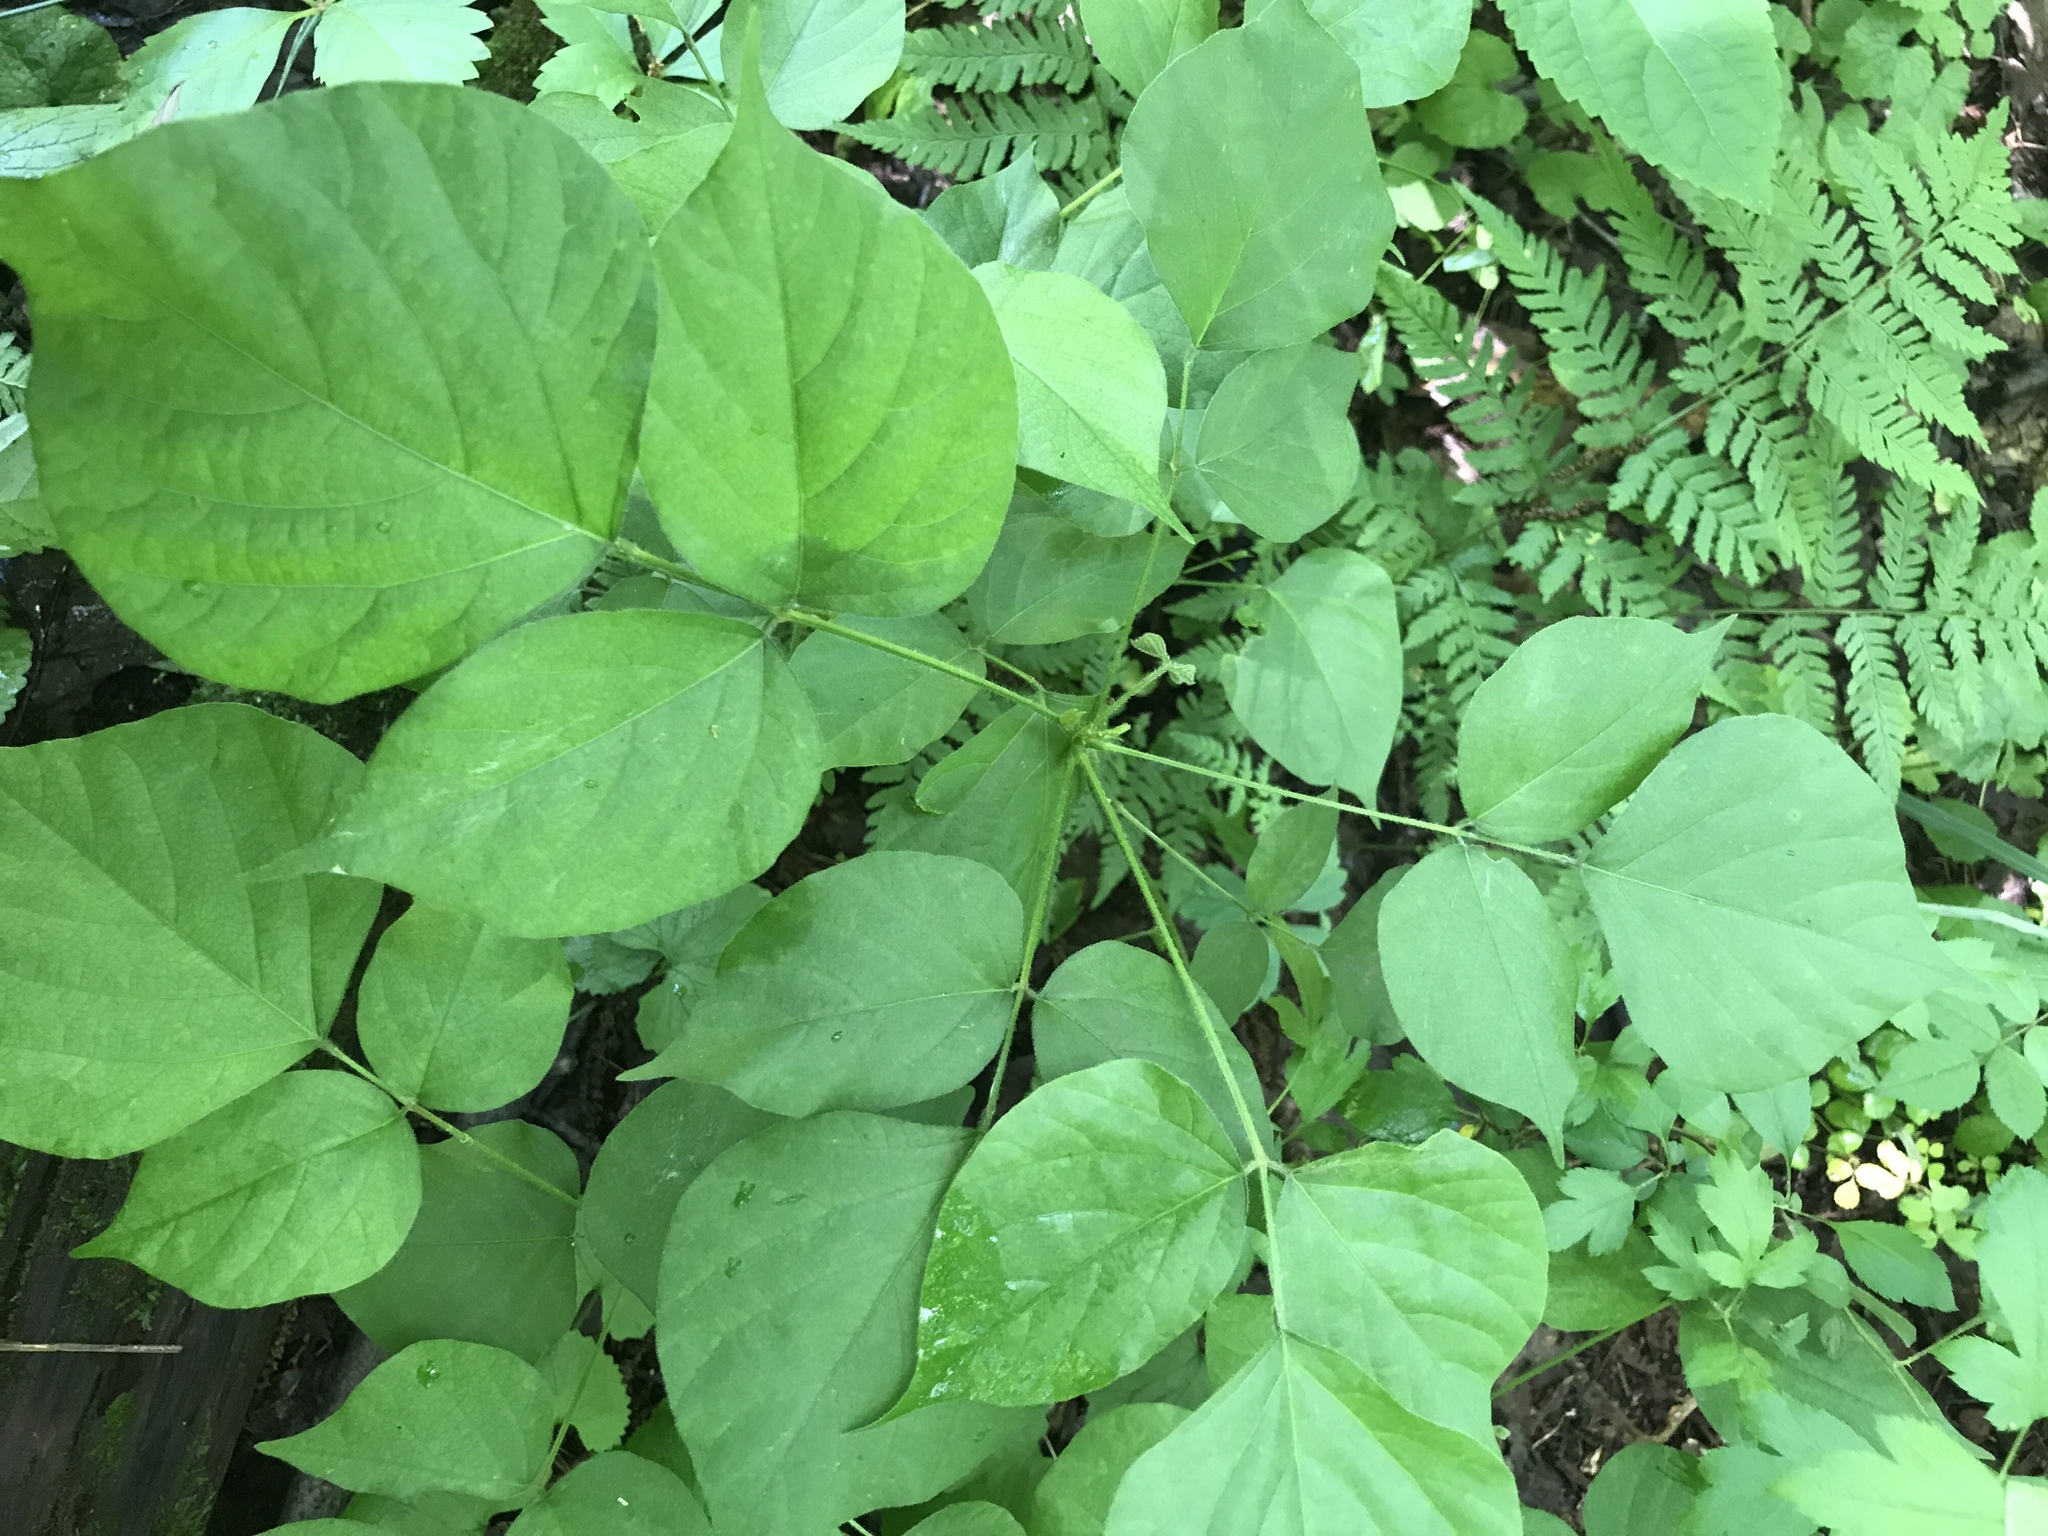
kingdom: Plantae
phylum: Tracheophyta
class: Magnoliopsida
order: Fabales
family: Fabaceae
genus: Hylodesmum
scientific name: Hylodesmum glutinosum
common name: Clustered-leaved tick-trefoil
